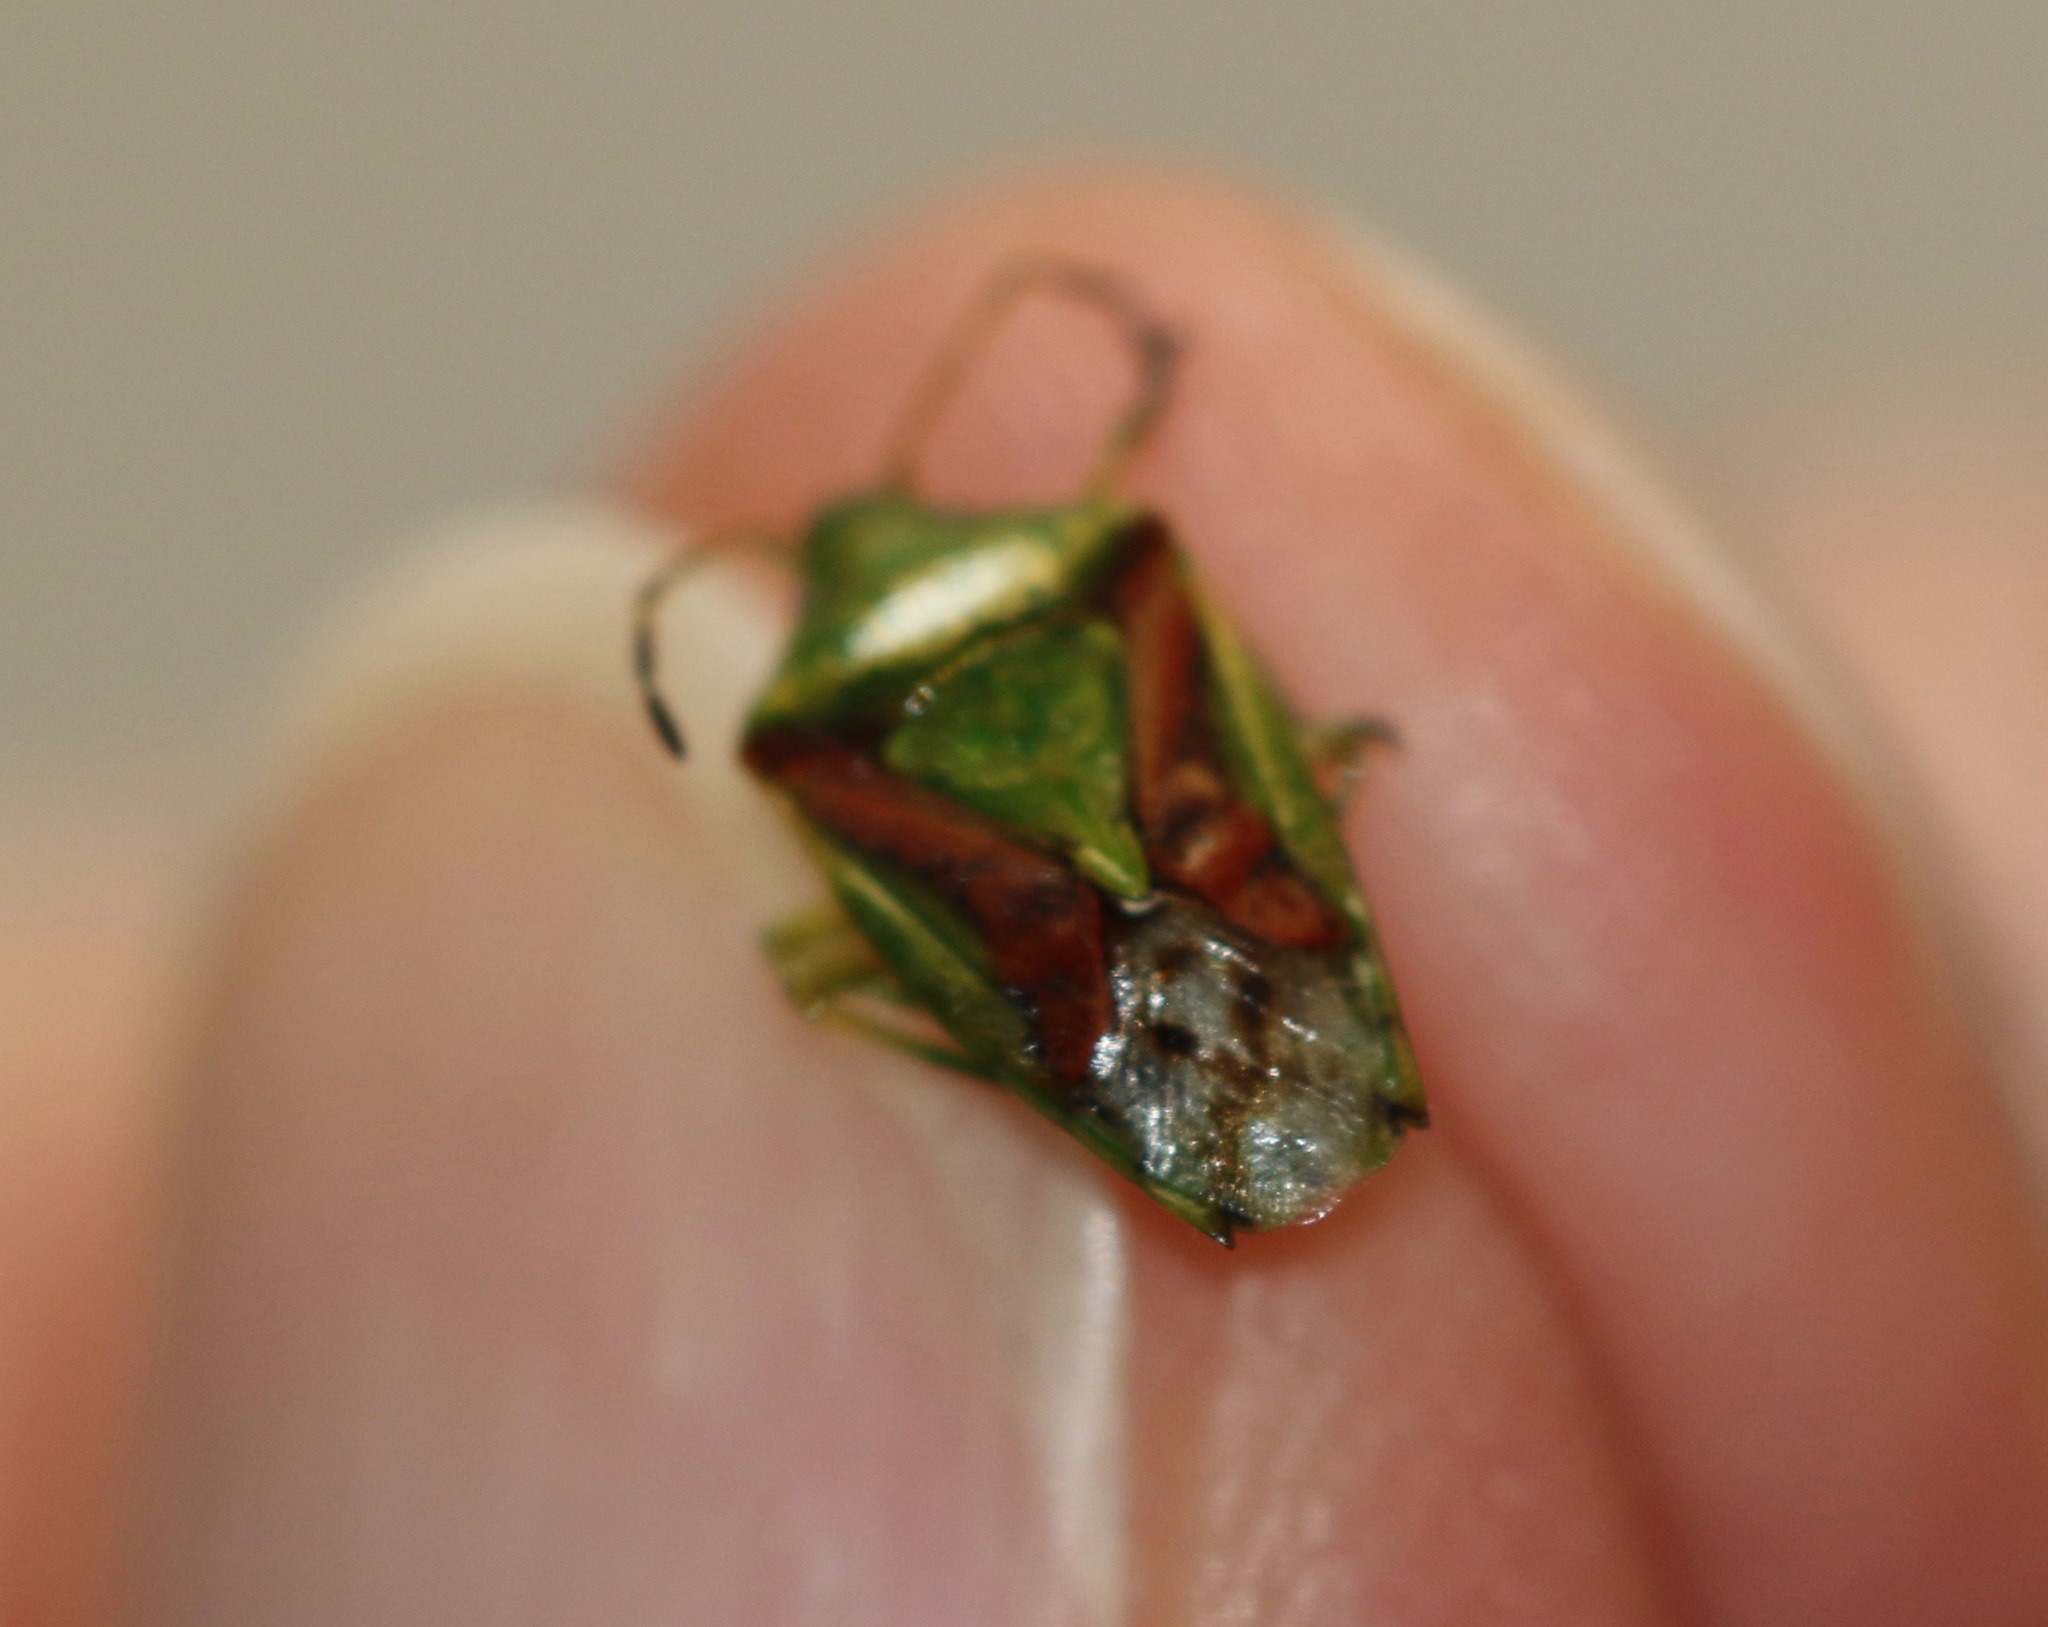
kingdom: Animalia
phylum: Arthropoda
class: Insecta
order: Hemiptera
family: Acanthosomatidae
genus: Cyphostethus
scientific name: Cyphostethus tristriatus
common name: Juniper shieldbug
